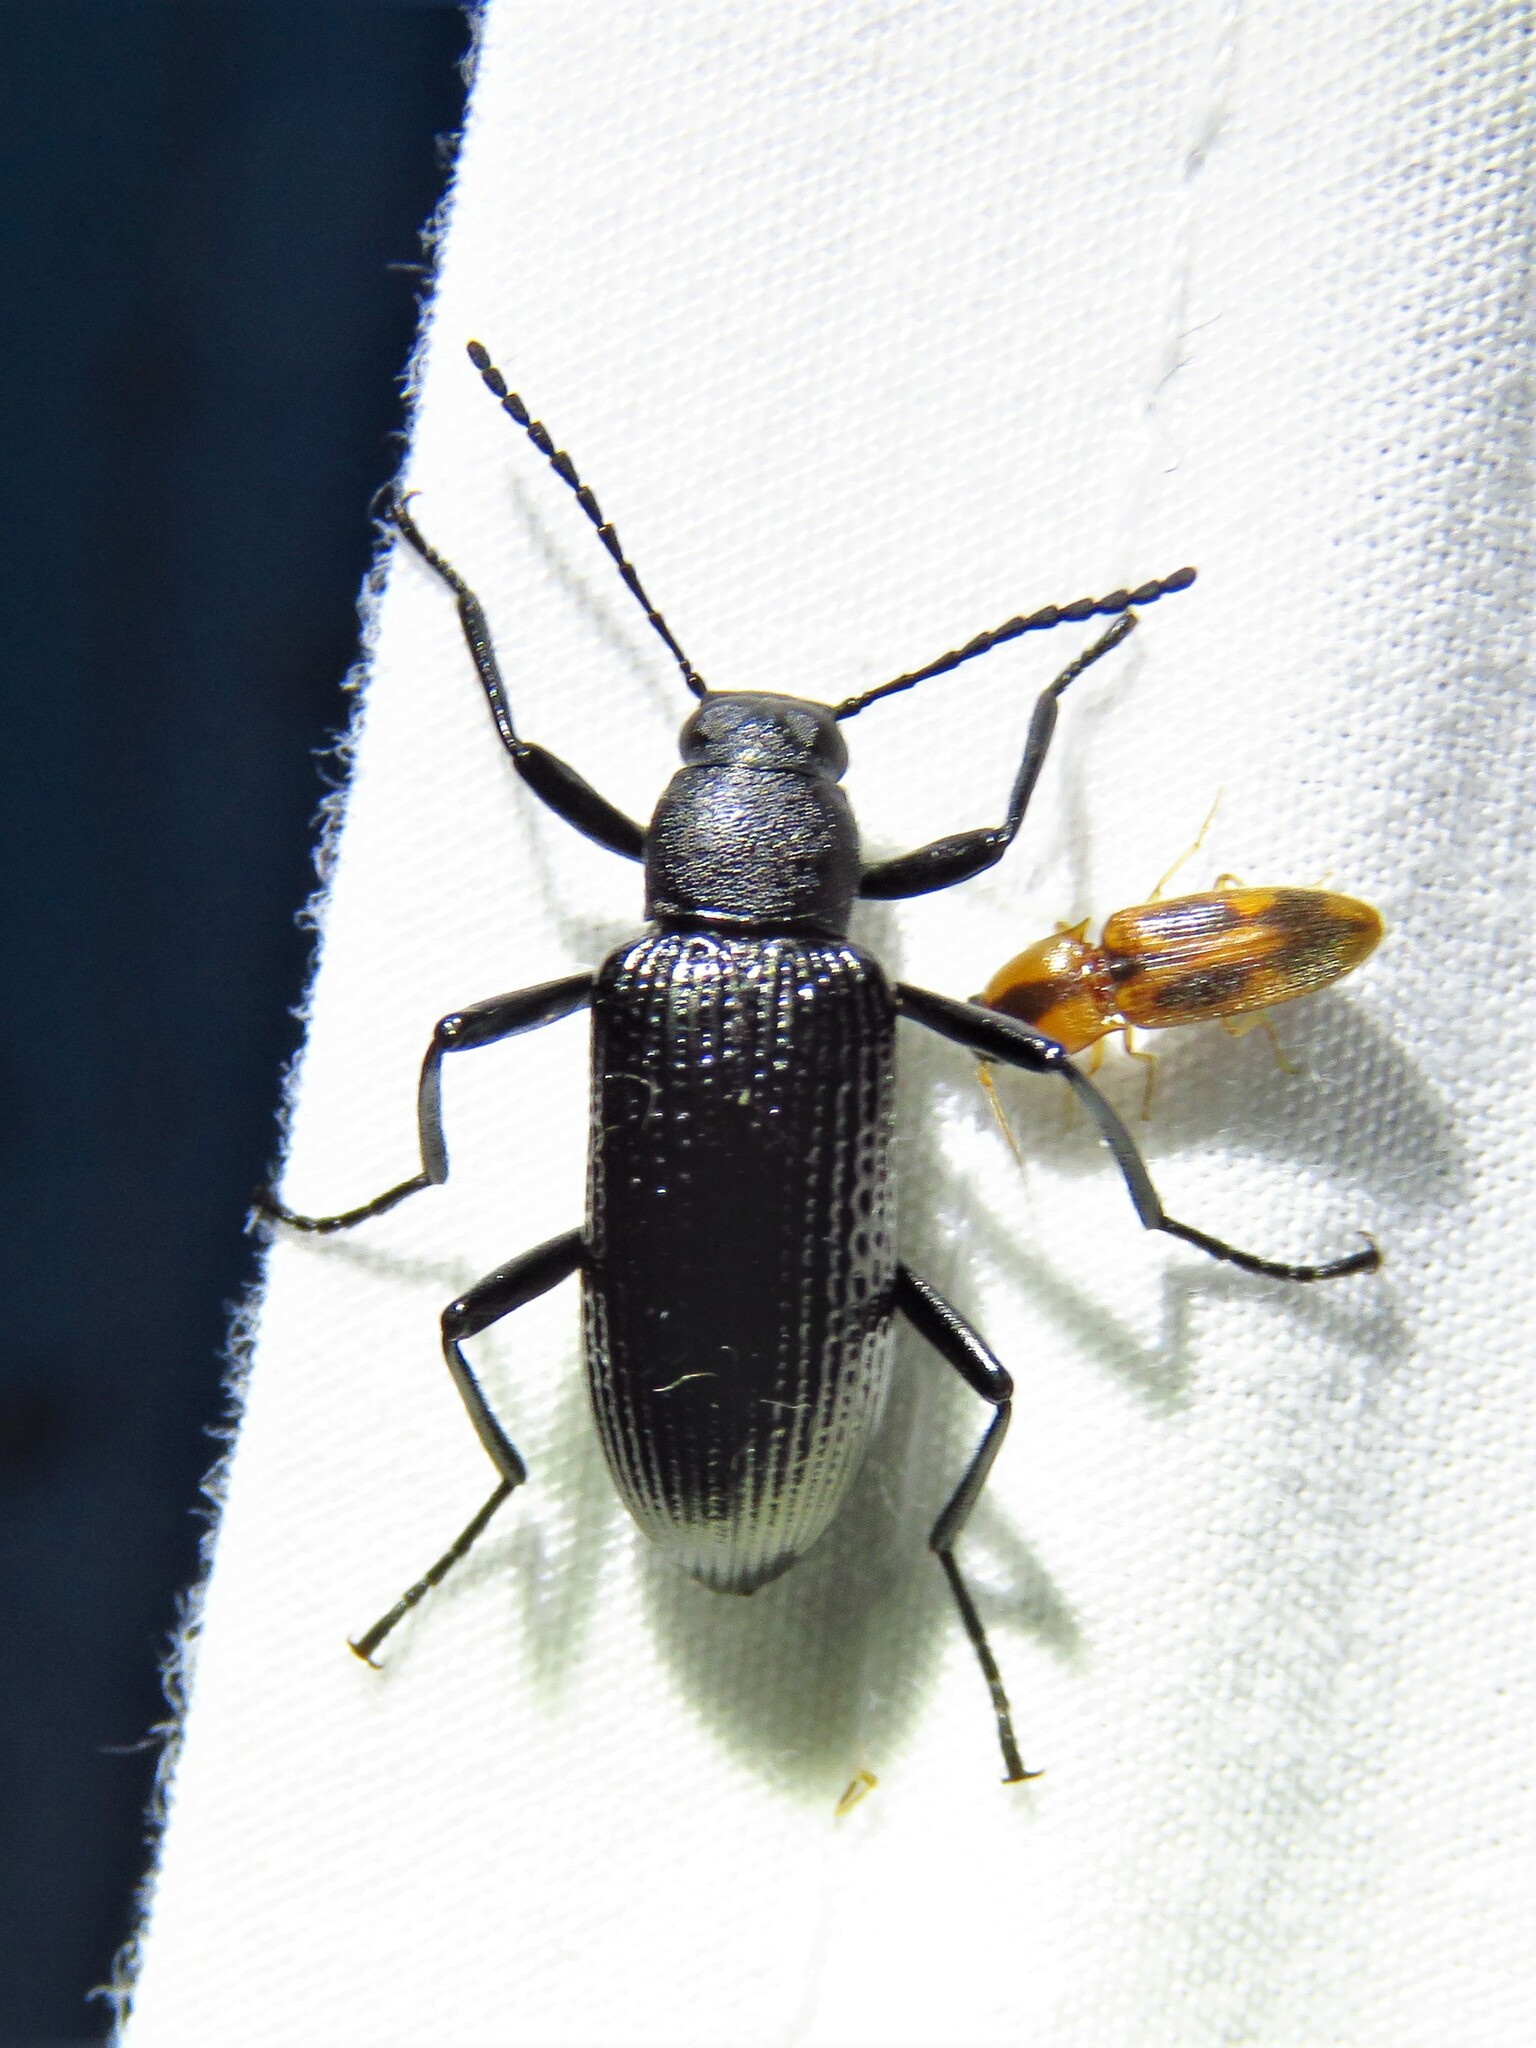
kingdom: Animalia
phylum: Arthropoda
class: Insecta
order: Coleoptera
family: Tenebrionidae
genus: Strongylium
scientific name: Strongylium hemistriatum
